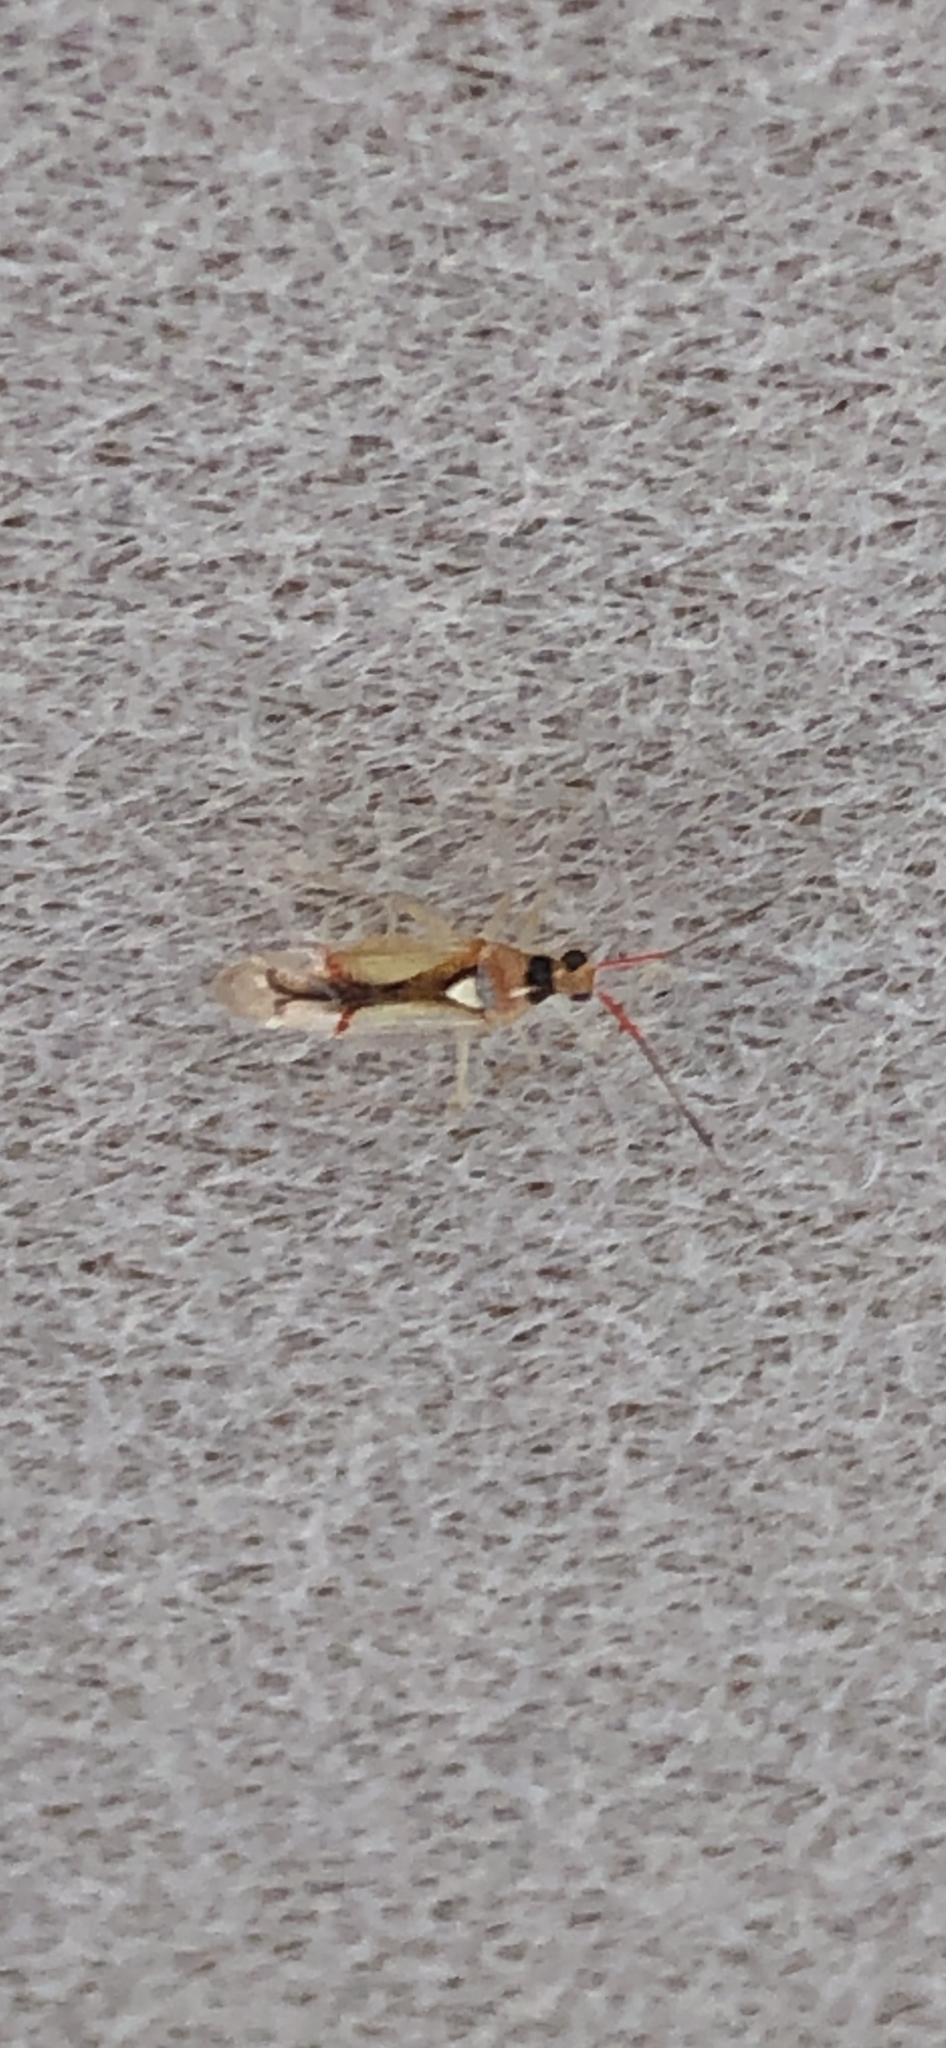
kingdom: Animalia
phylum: Arthropoda
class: Insecta
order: Hemiptera
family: Miridae
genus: Hyaliodes
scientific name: Hyaliodes harti
